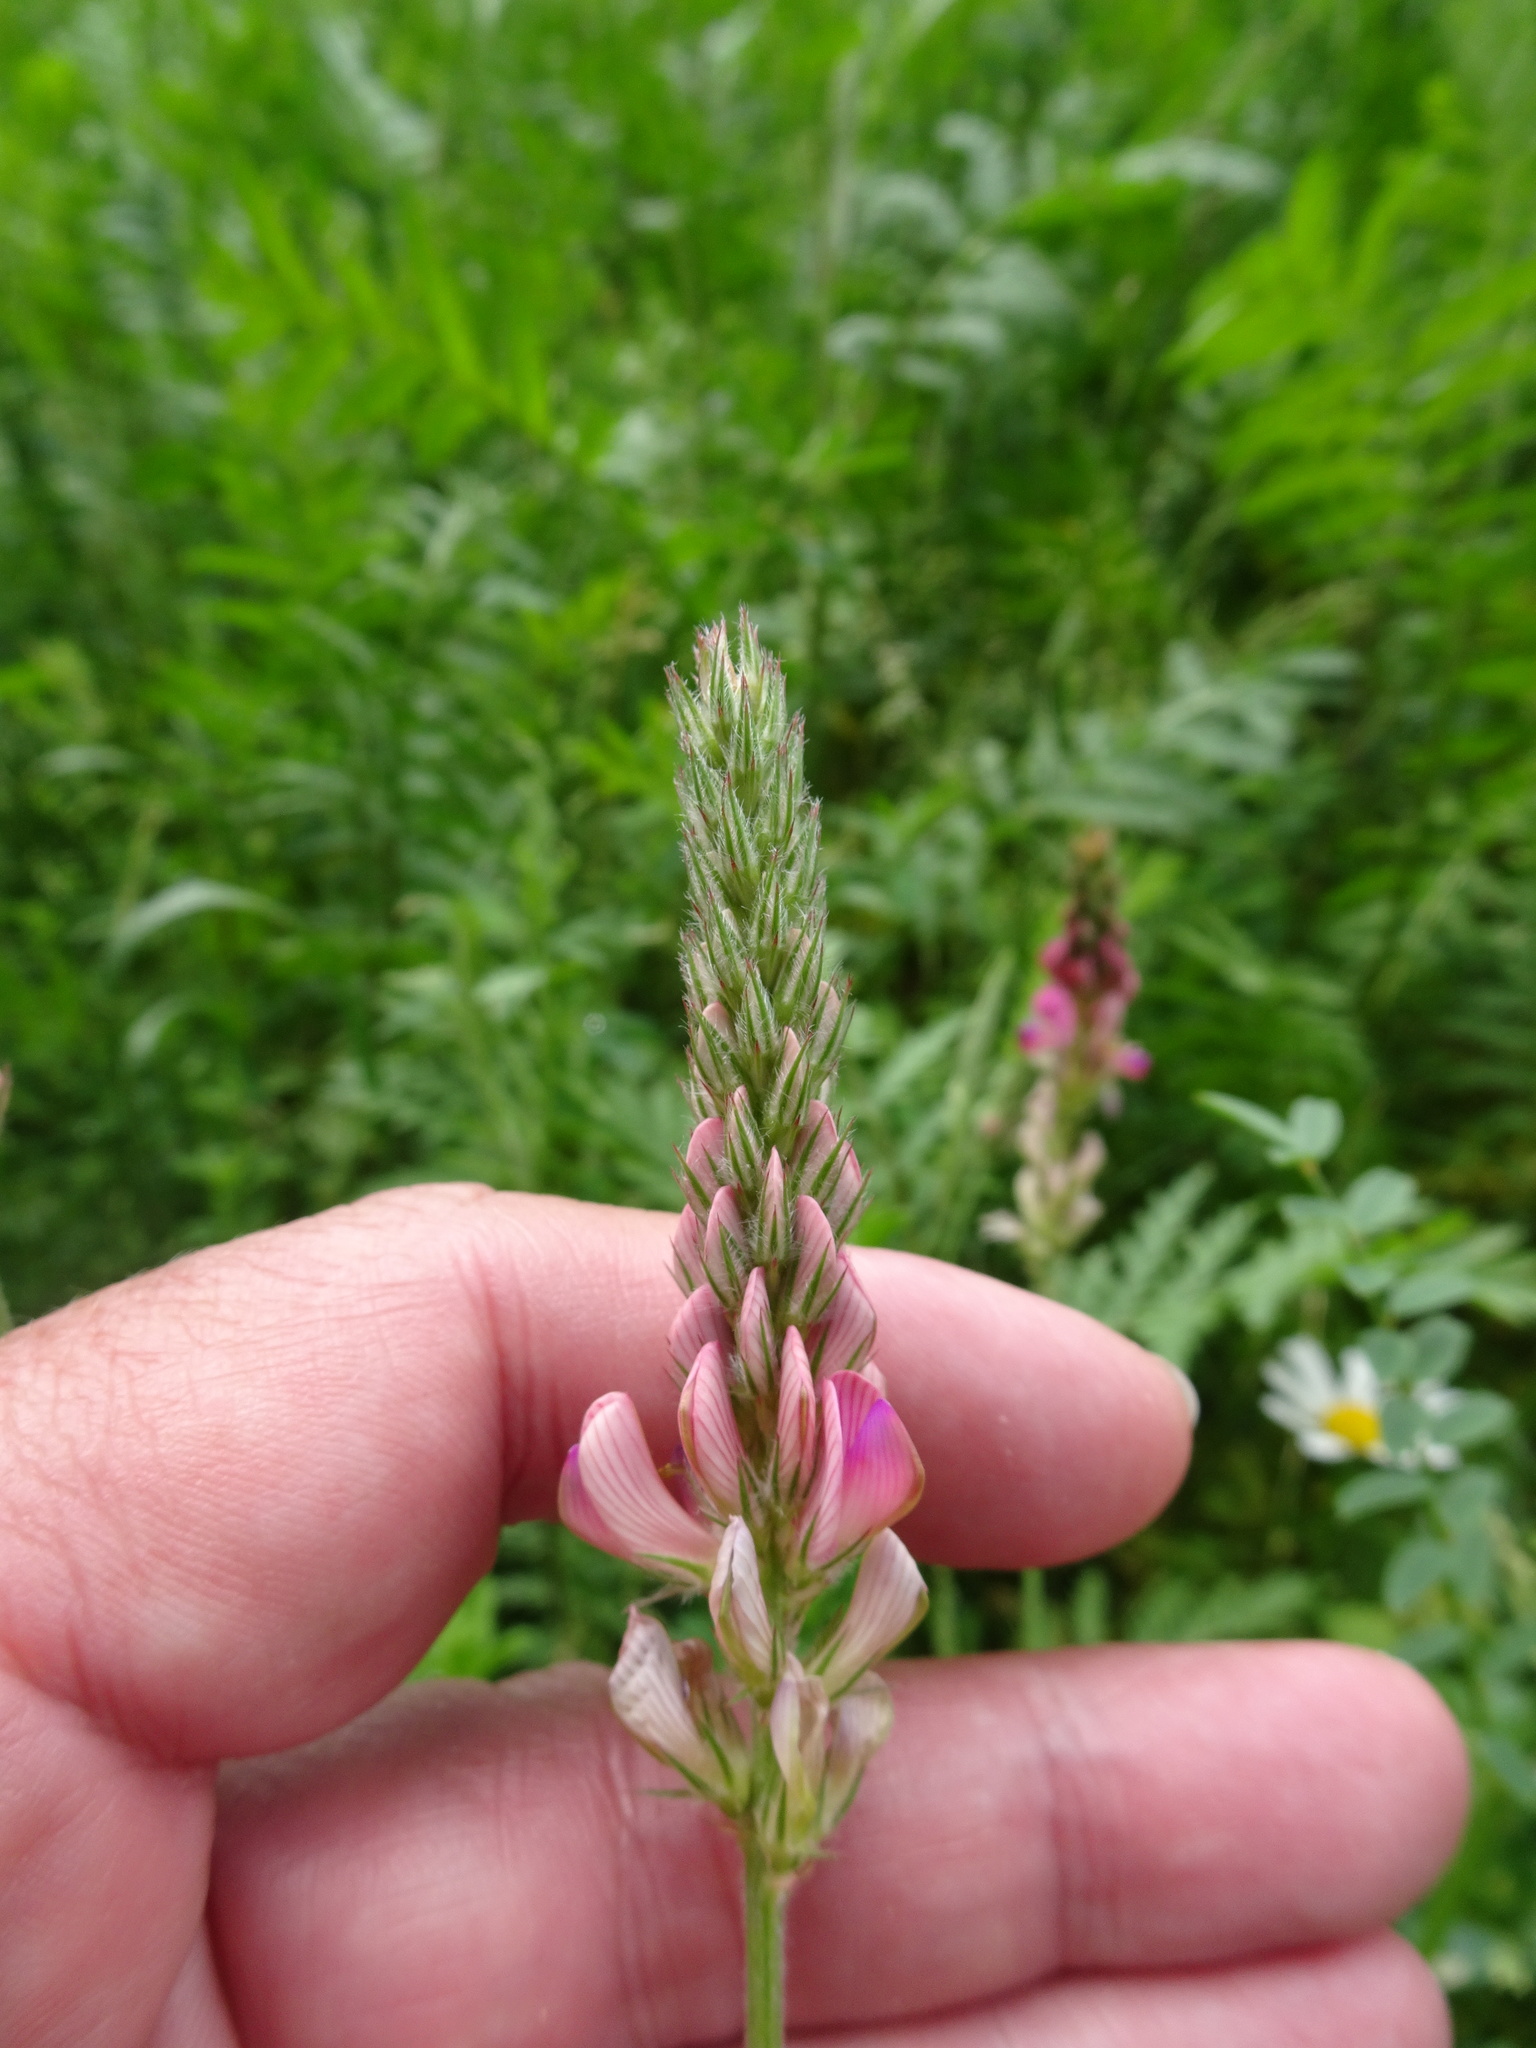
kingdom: Plantae
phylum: Tracheophyta
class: Magnoliopsida
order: Fabales
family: Fabaceae
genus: Onobrychis
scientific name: Onobrychis viciifolia
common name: Sainfoin
